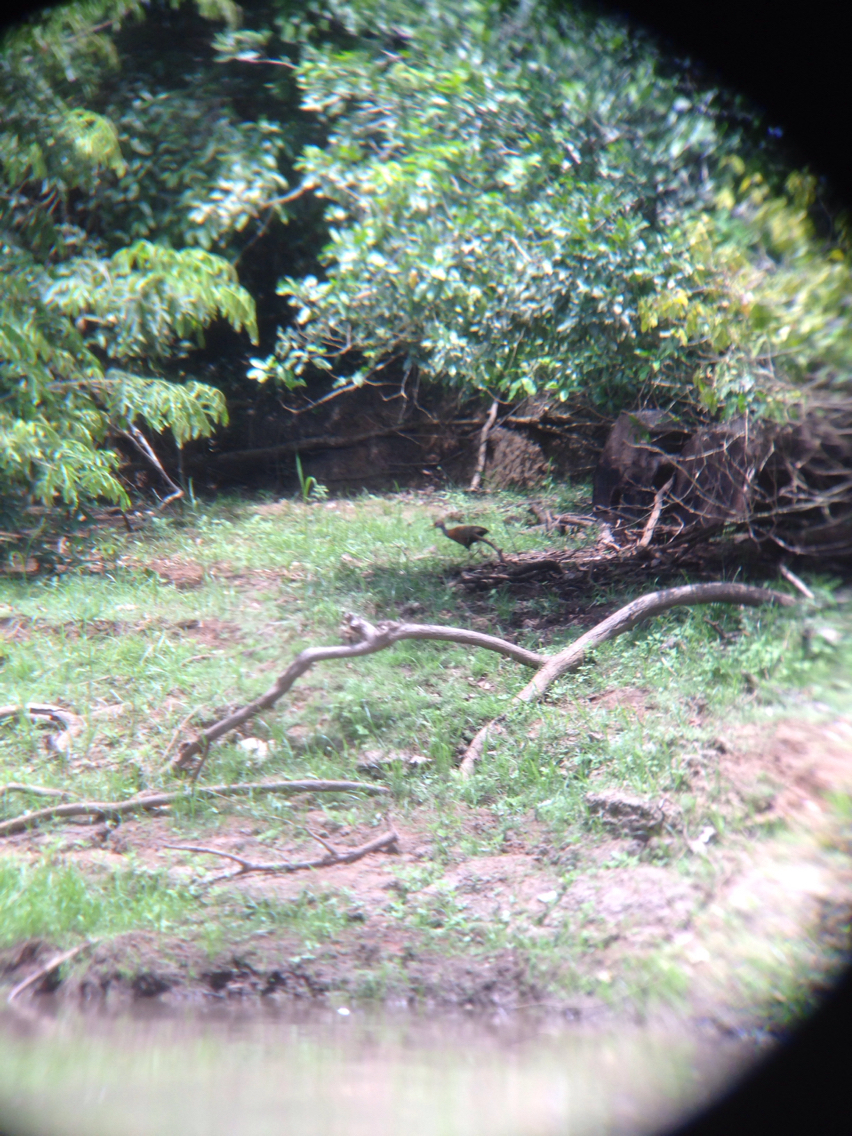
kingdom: Animalia
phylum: Chordata
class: Aves
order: Gruiformes
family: Rallidae
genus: Aramides
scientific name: Aramides albiventris
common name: Russet-naped wood-rail
